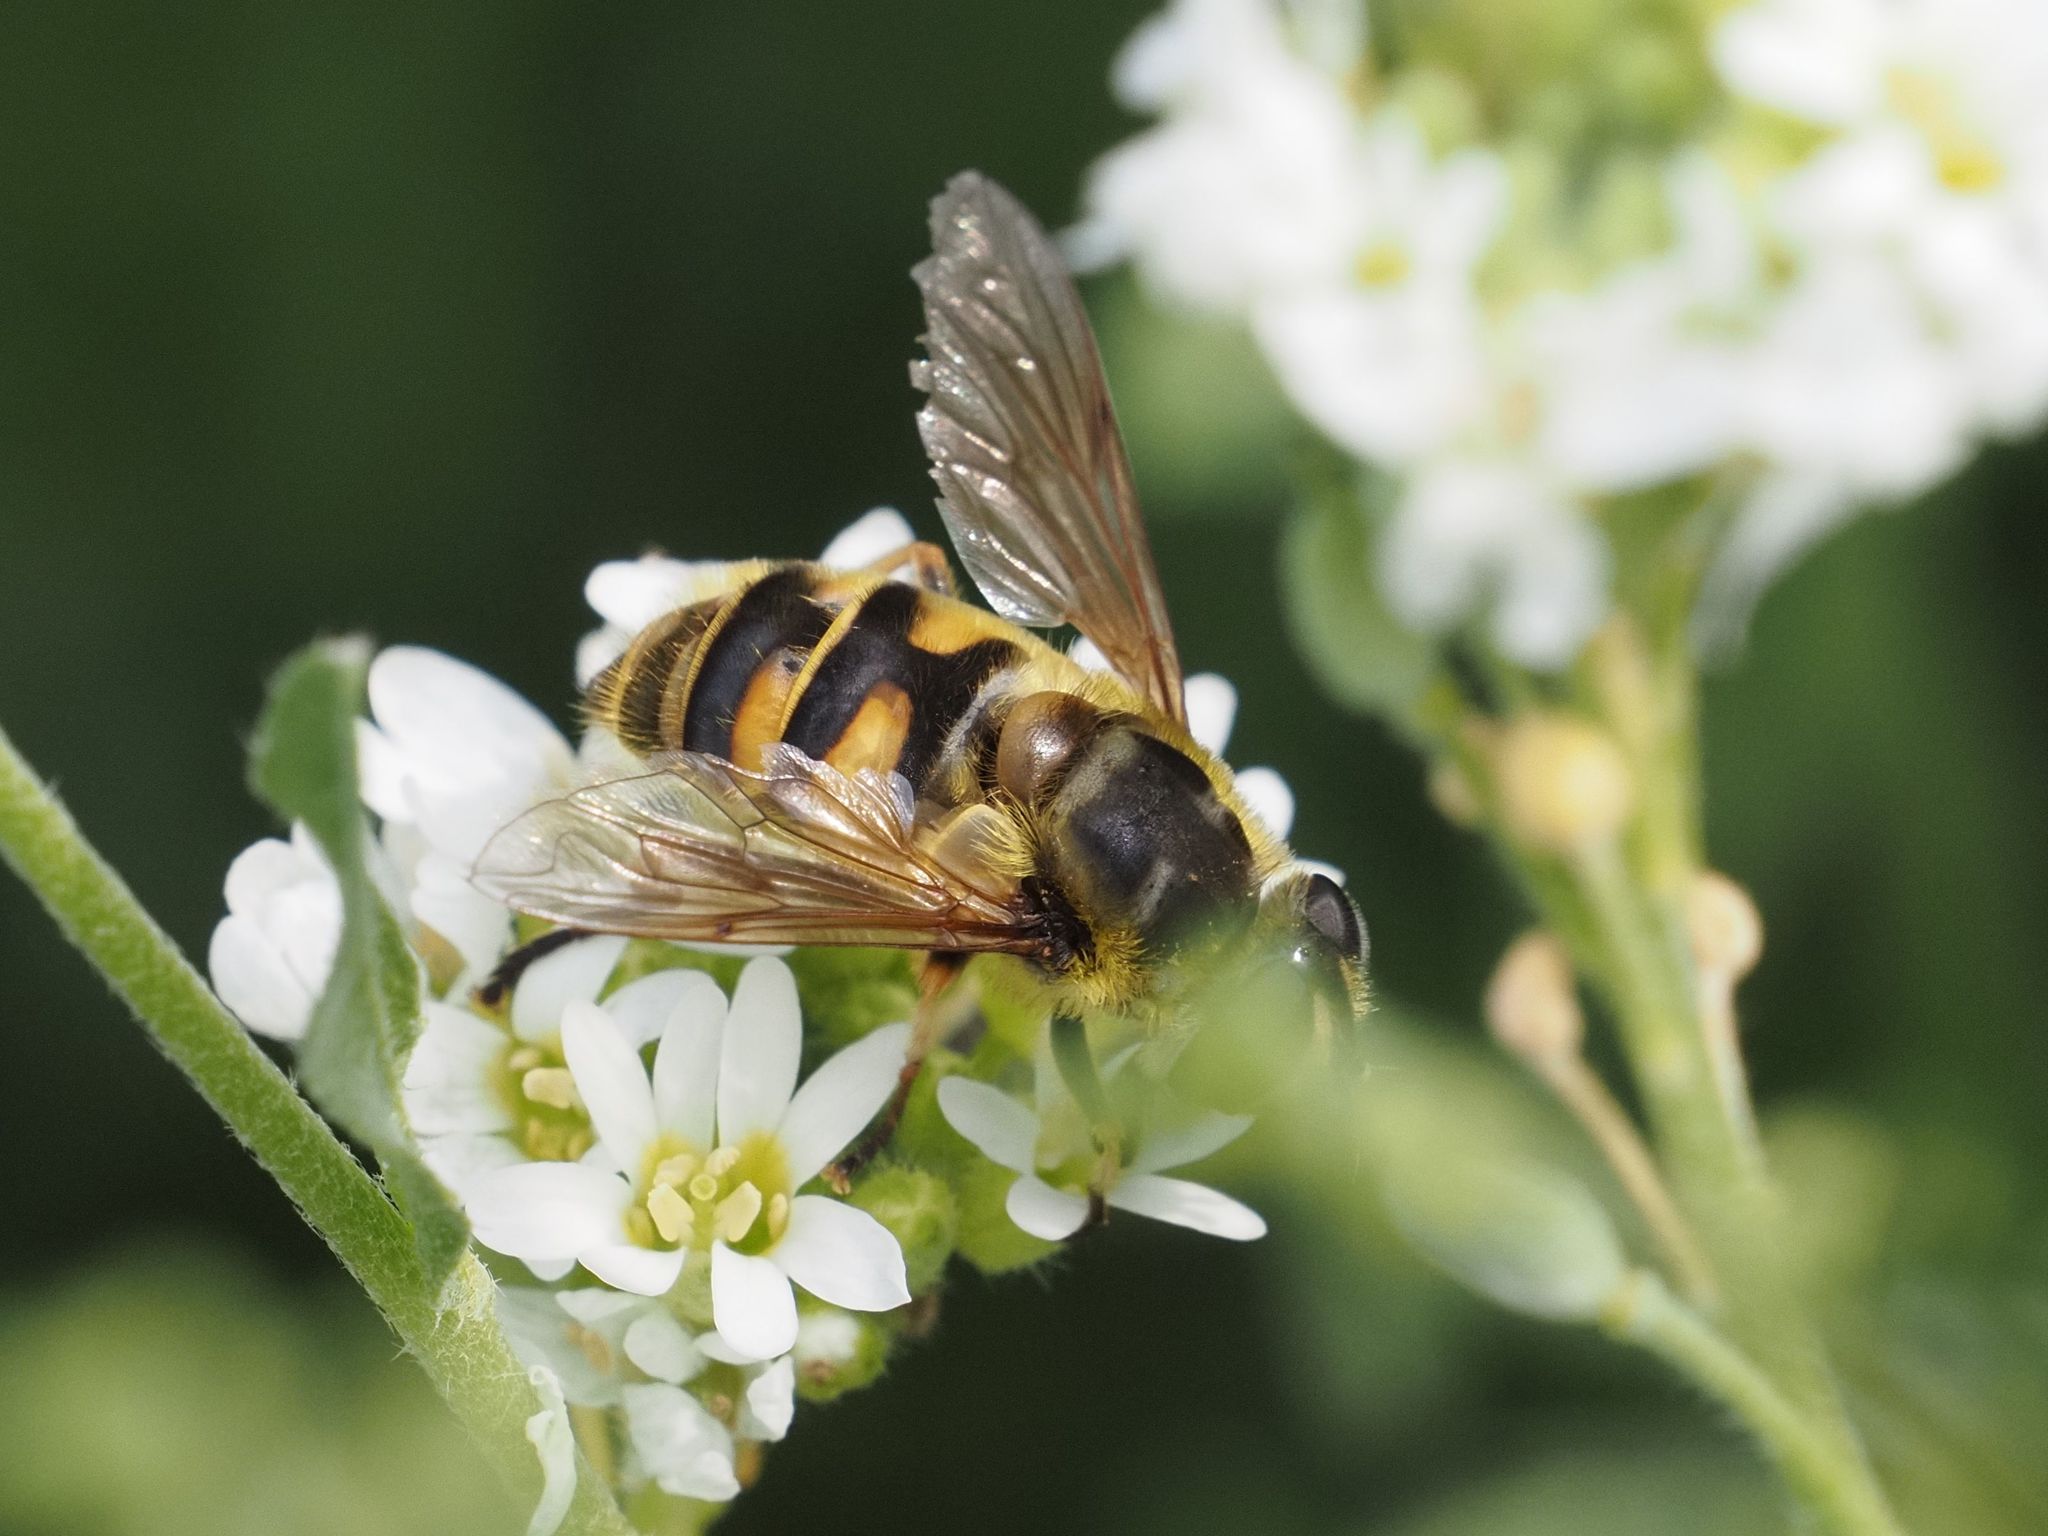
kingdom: Animalia
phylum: Arthropoda
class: Insecta
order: Diptera
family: Syrphidae
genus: Myathropa
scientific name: Myathropa florea
